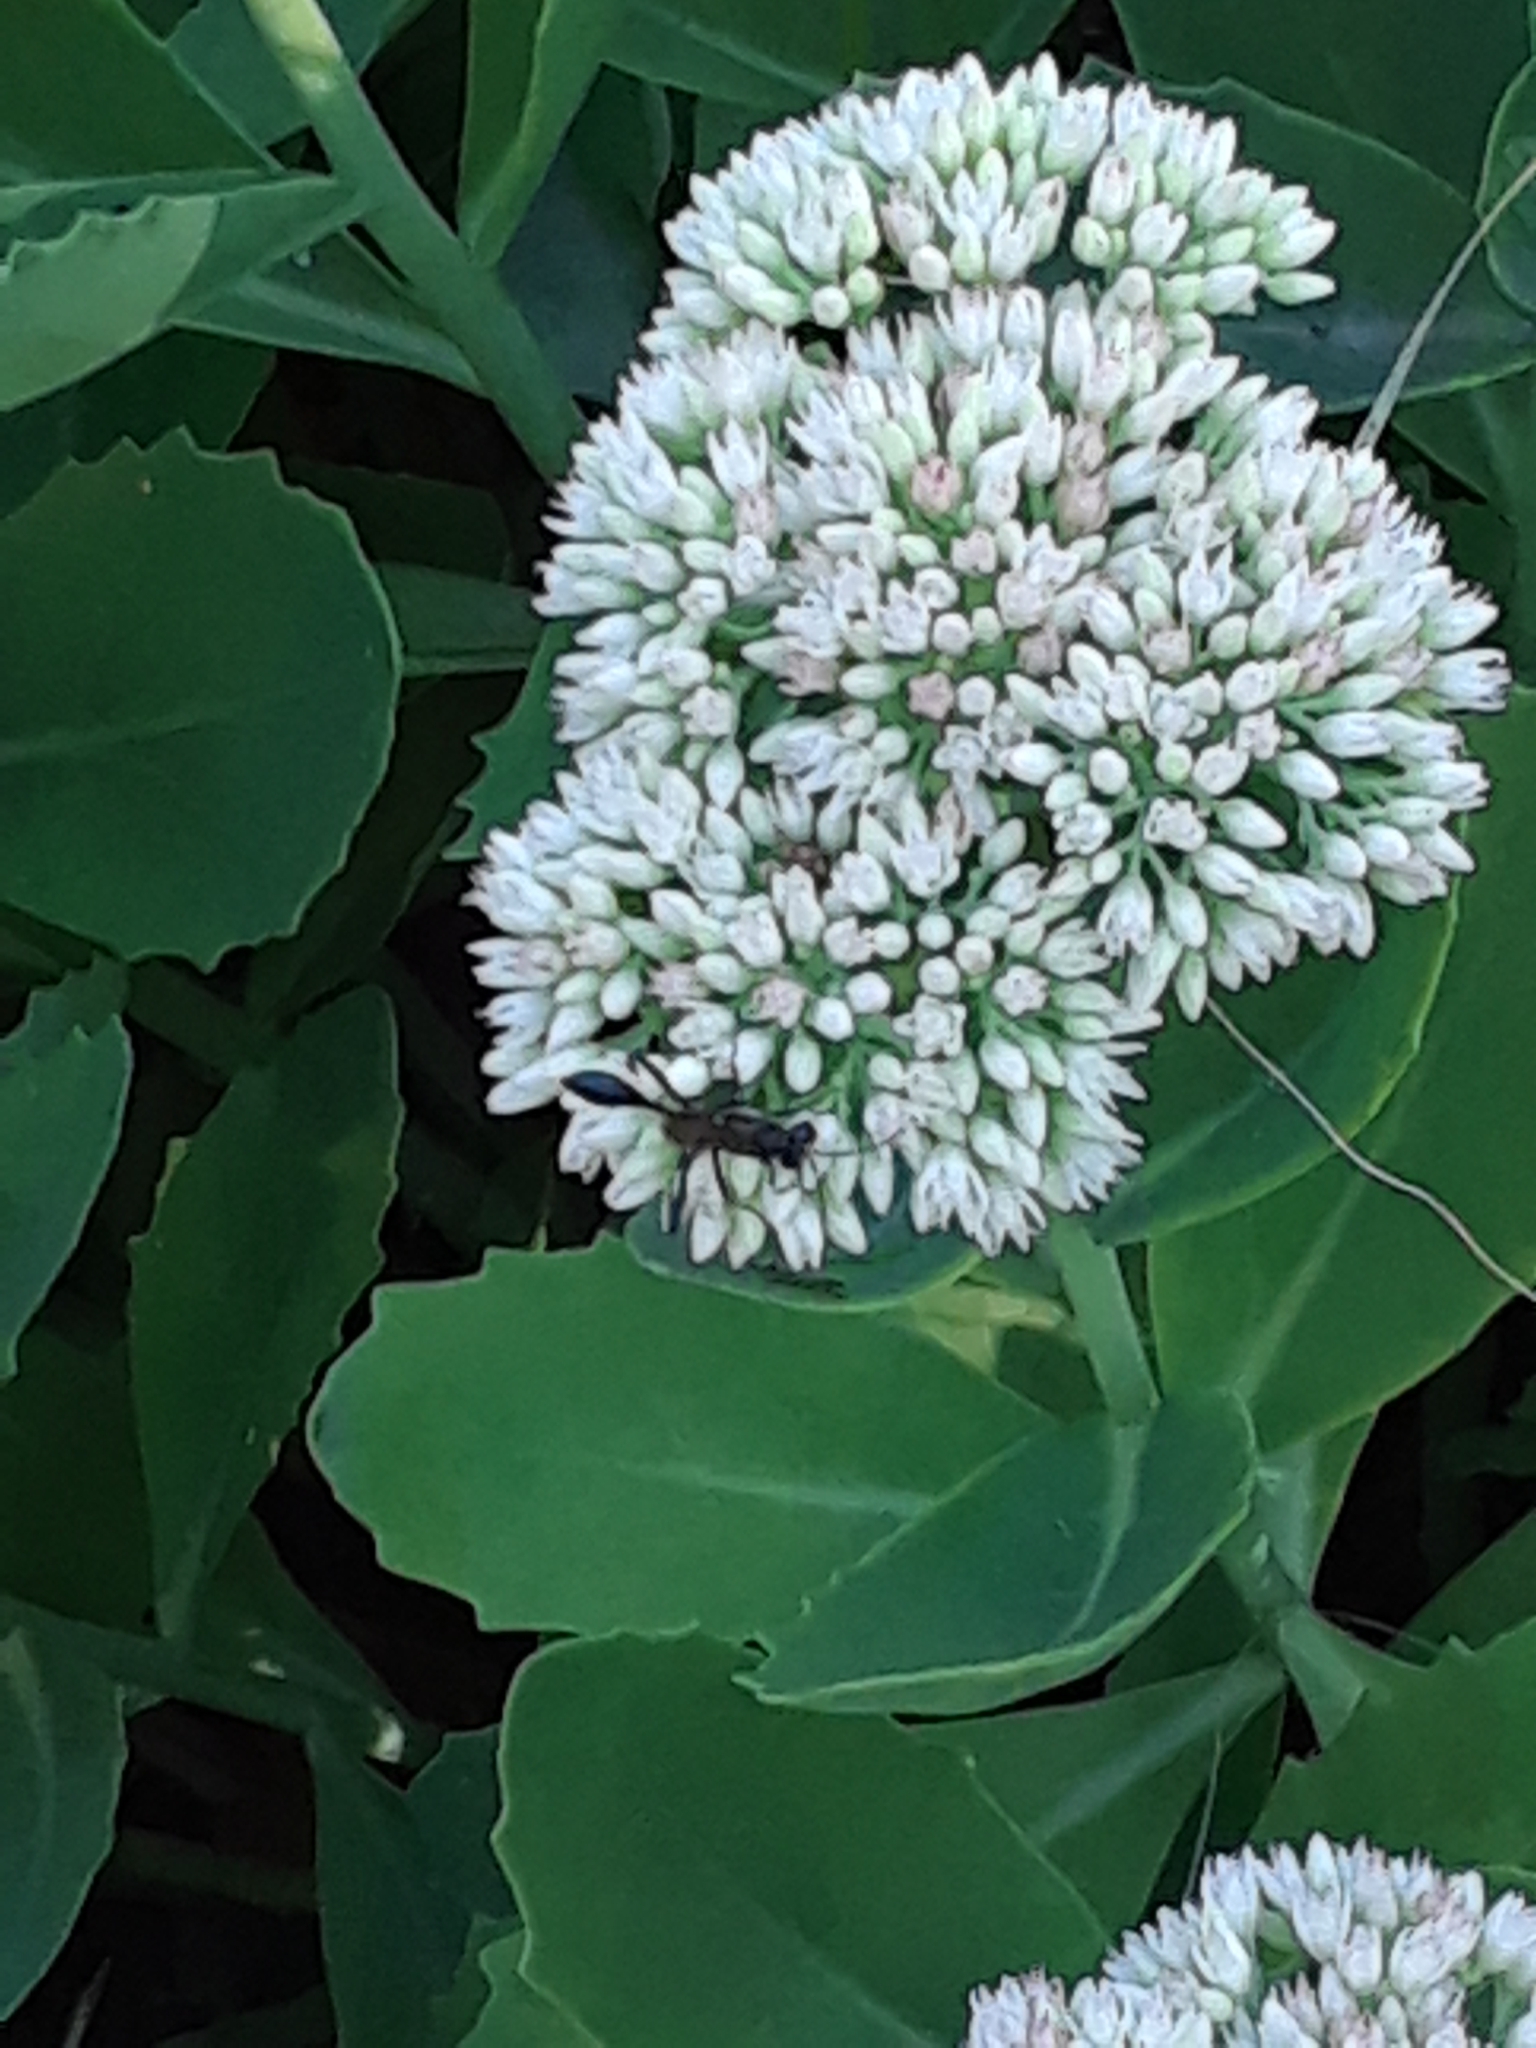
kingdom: Animalia
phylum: Arthropoda
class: Insecta
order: Hymenoptera
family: Sphecidae
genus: Eremnophila
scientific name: Eremnophila aureonotata
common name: Gold-marked thread-waisted wasp
